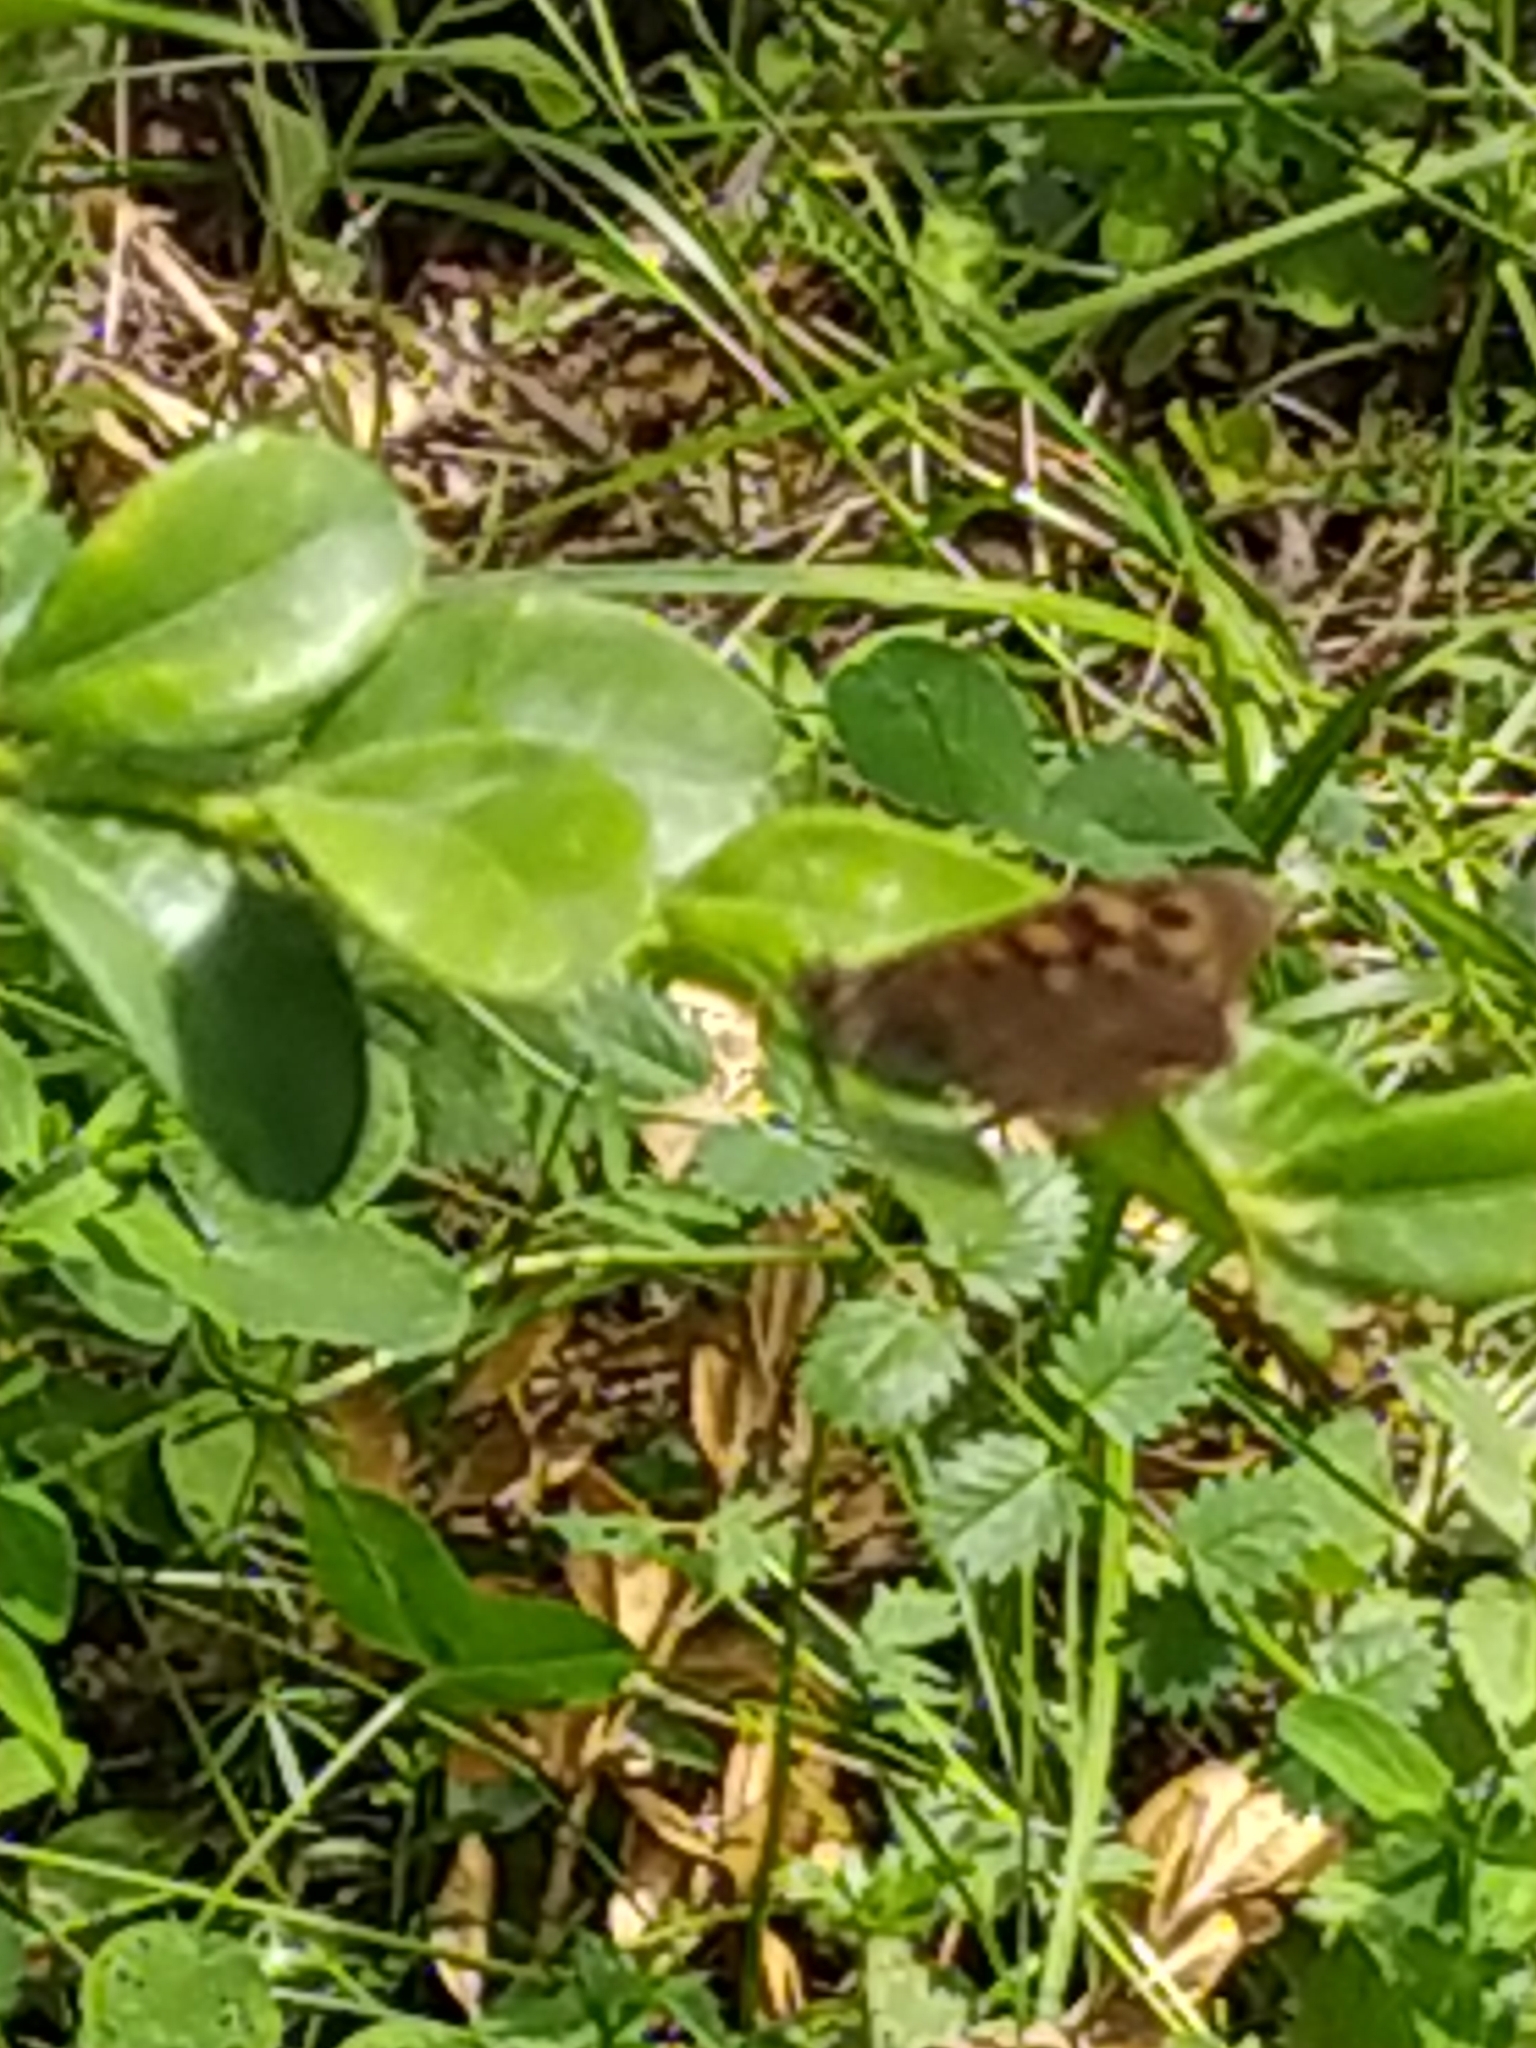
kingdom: Animalia
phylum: Arthropoda
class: Insecta
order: Lepidoptera
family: Nymphalidae
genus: Pararge
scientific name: Pararge aegeria
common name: Speckled wood
